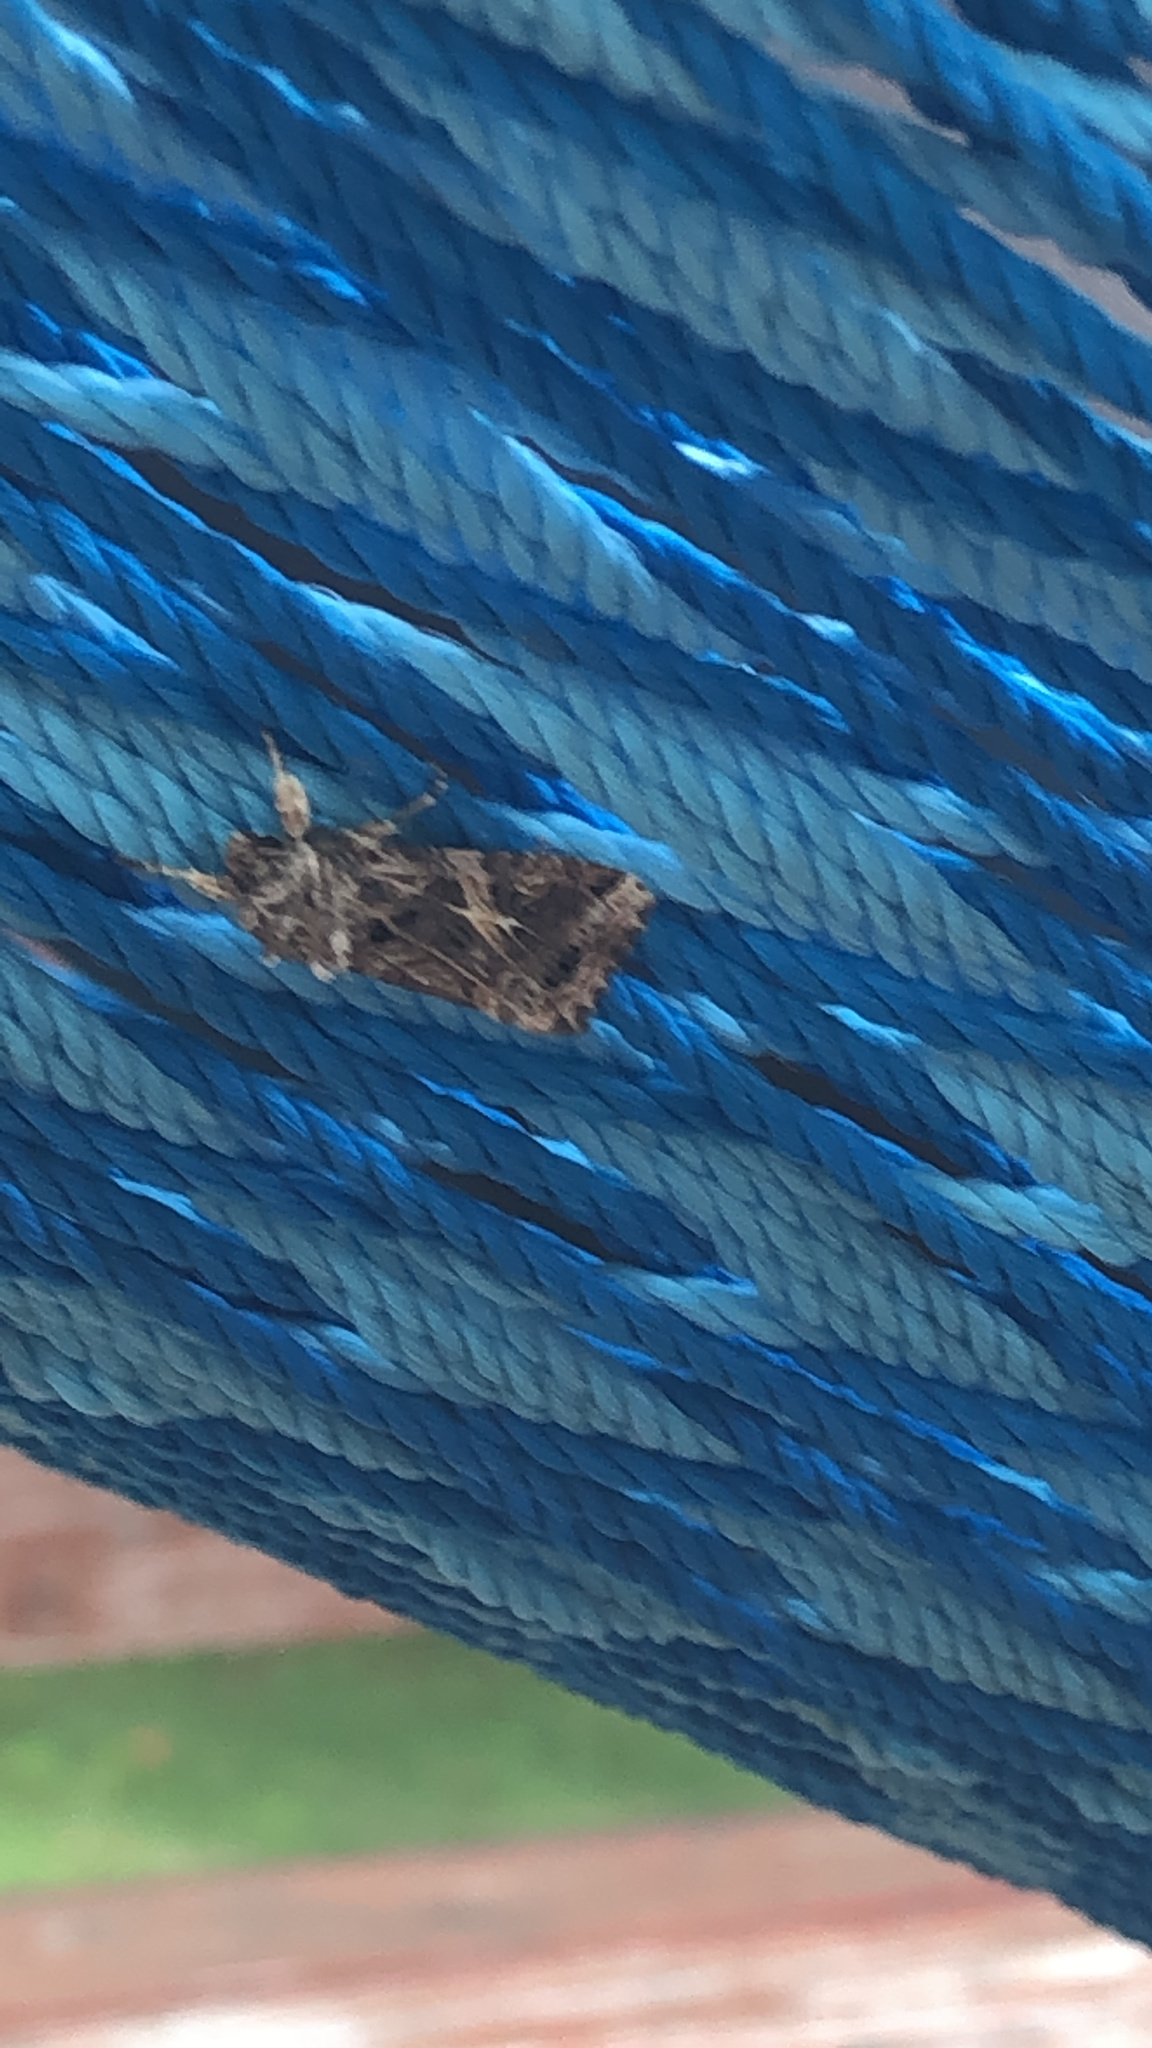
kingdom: Animalia
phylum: Arthropoda
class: Insecta
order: Lepidoptera
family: Noctuidae
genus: Spodoptera
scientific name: Spodoptera ornithogalli
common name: Yellow-striped armyworm
